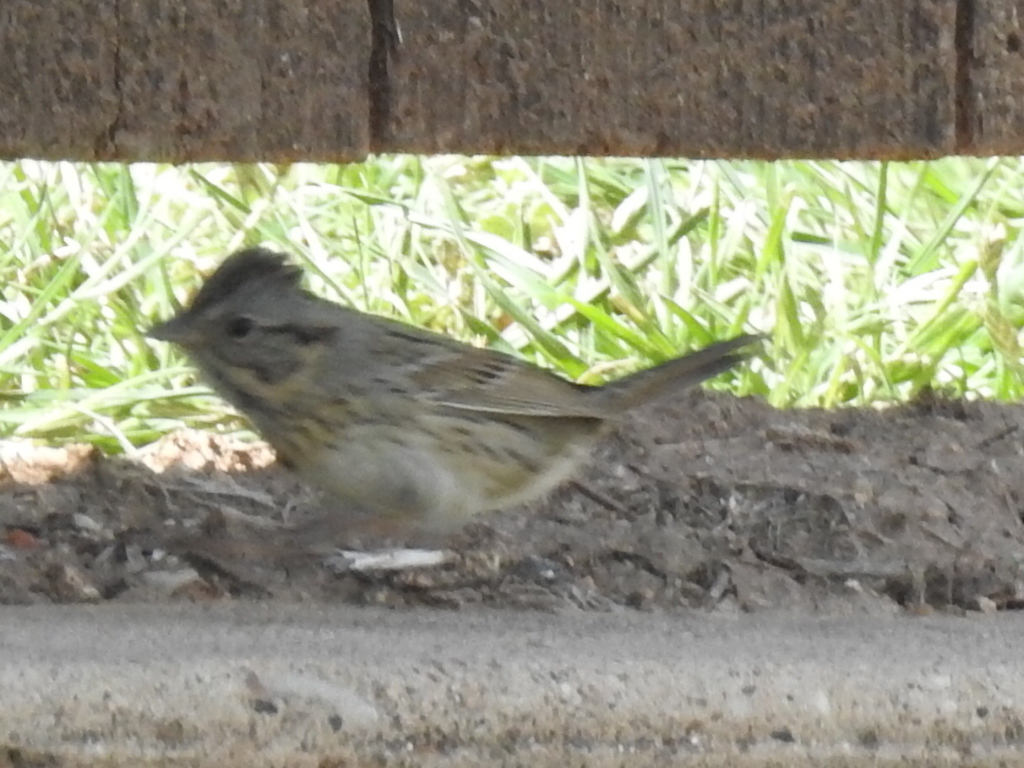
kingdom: Animalia
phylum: Chordata
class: Aves
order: Passeriformes
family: Passerellidae
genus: Melospiza
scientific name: Melospiza lincolnii
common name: Lincoln's sparrow
